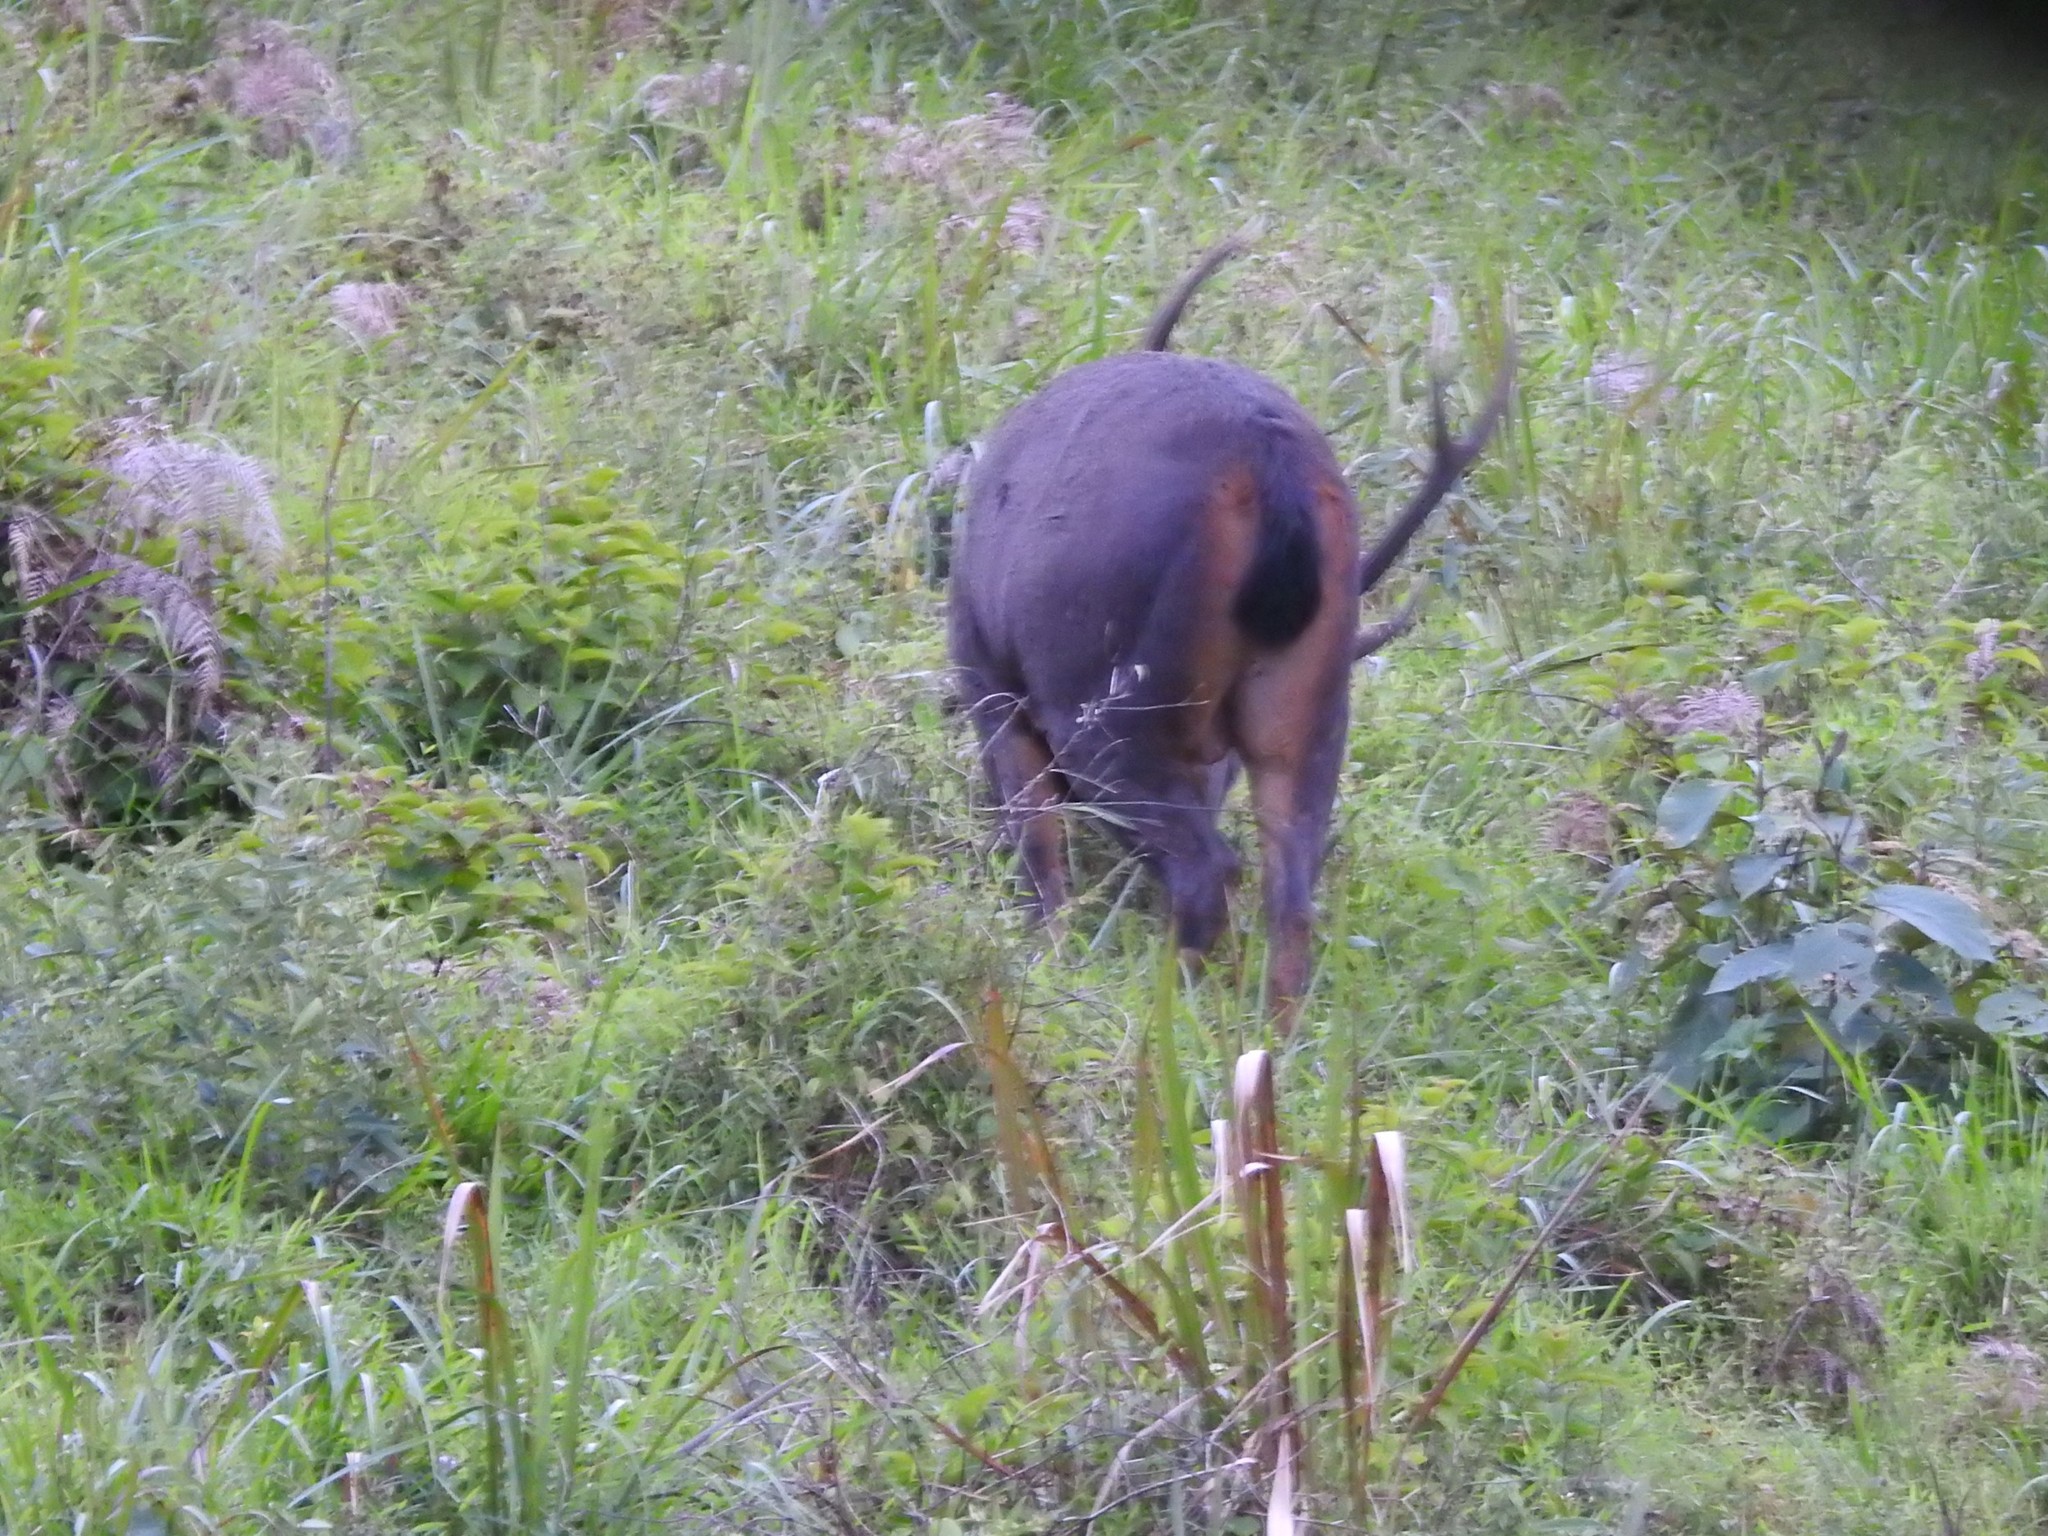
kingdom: Animalia
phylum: Chordata
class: Mammalia
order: Artiodactyla
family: Cervidae
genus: Rusa
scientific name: Rusa unicolor
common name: Sambar
